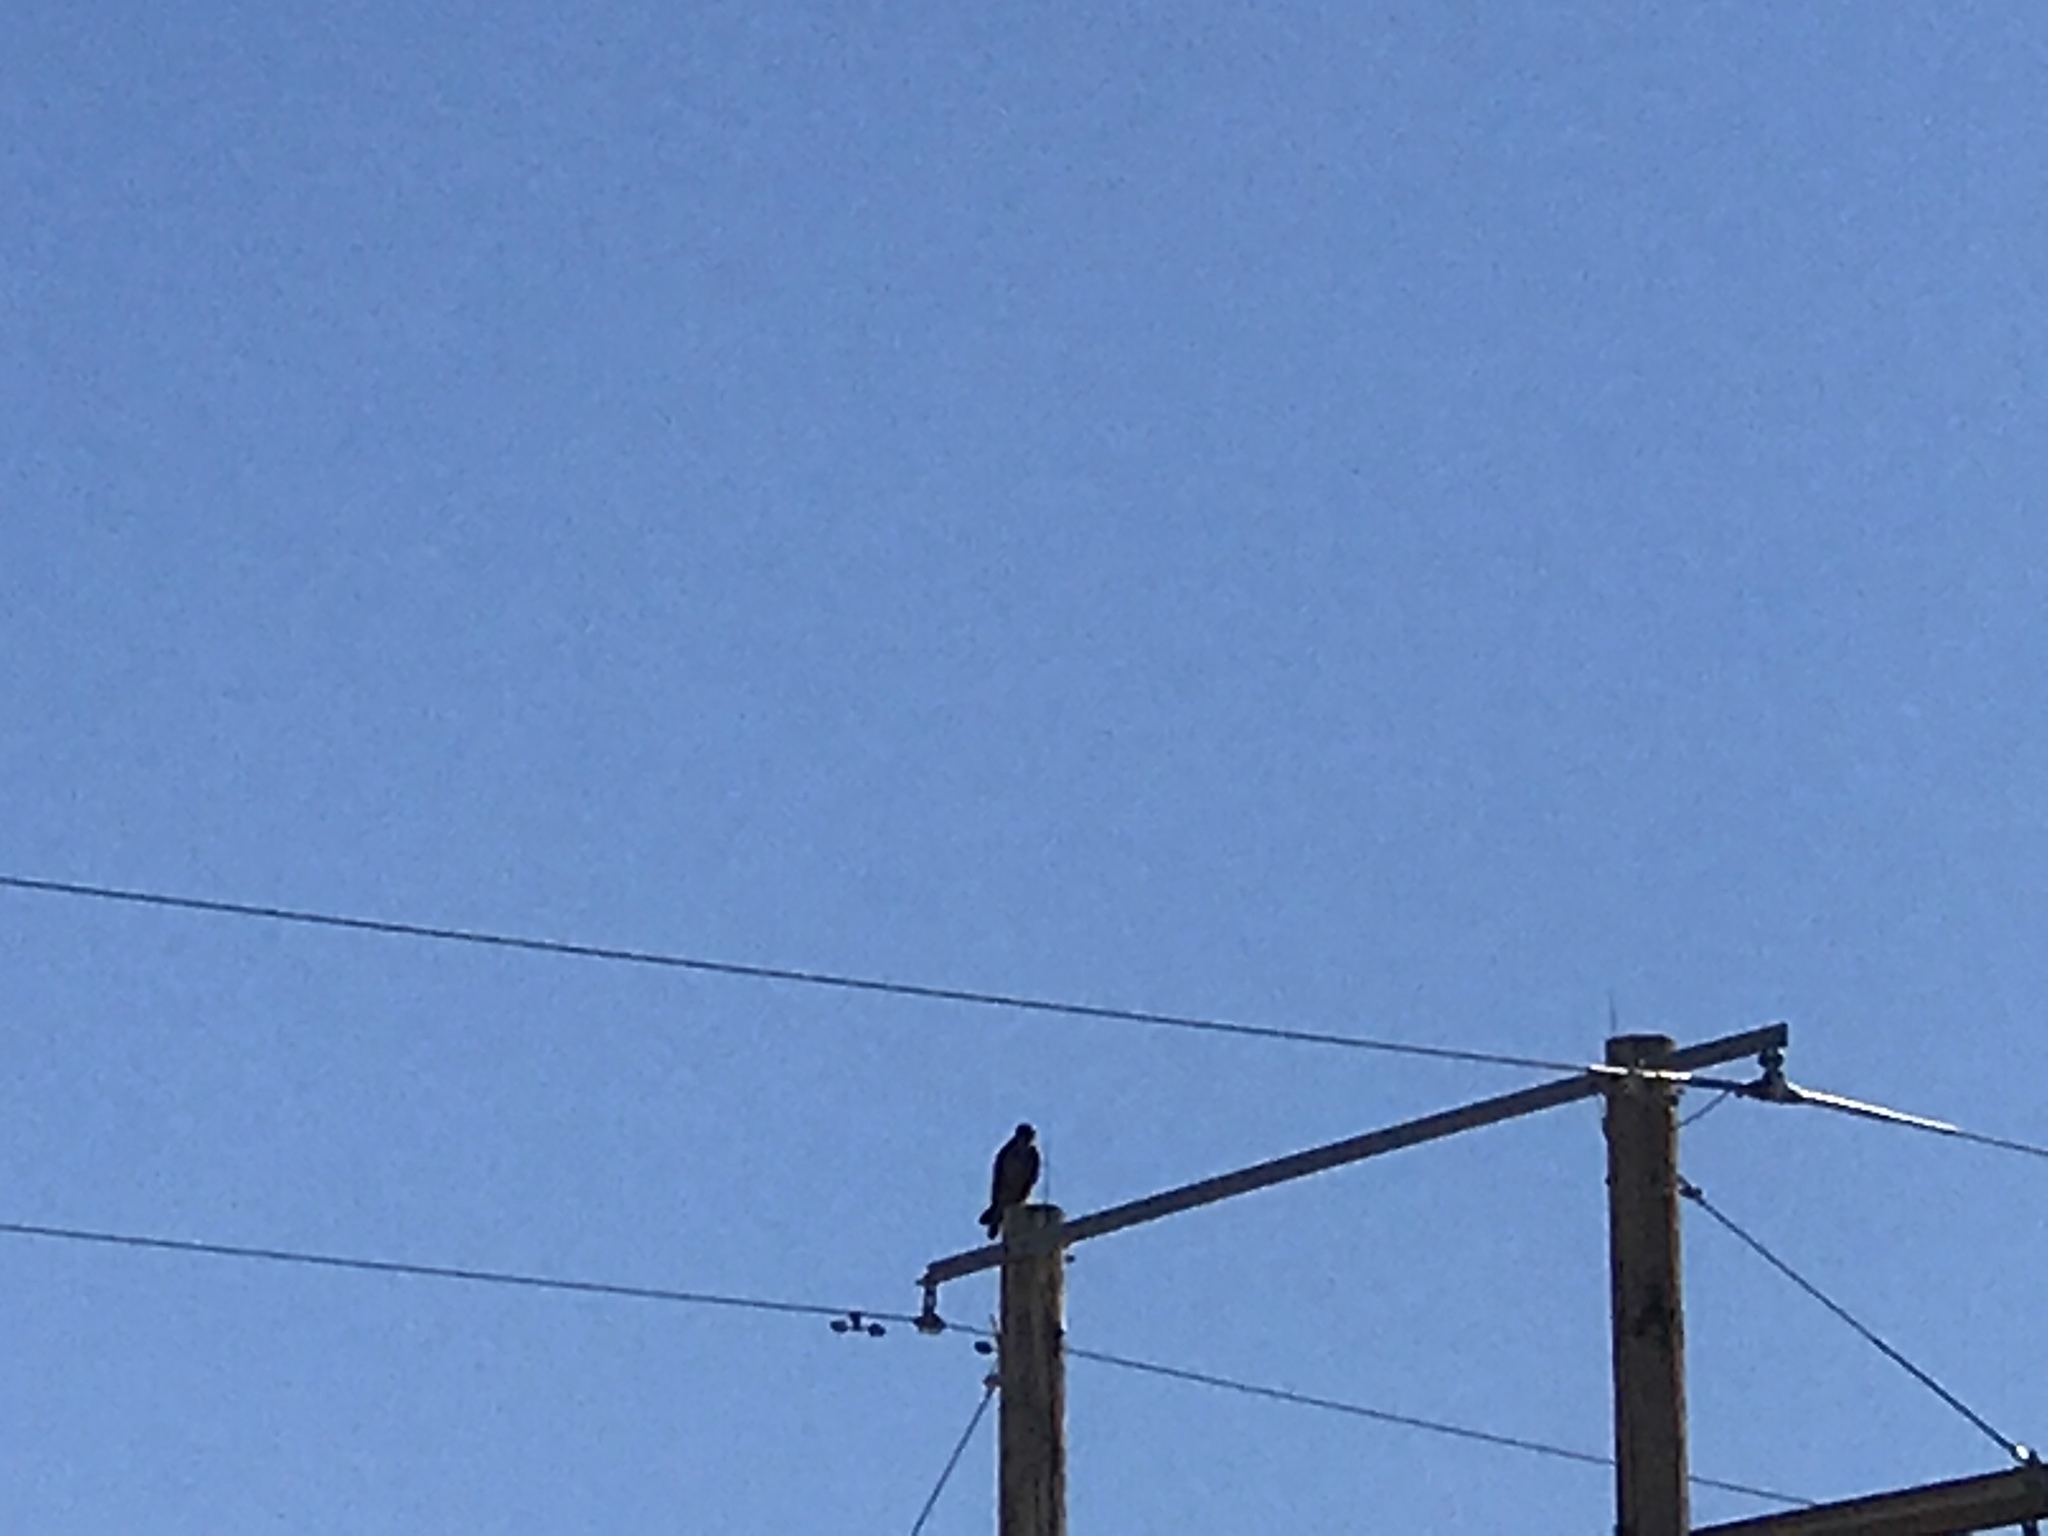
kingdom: Animalia
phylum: Chordata
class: Aves
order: Accipitriformes
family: Accipitridae
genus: Buteo
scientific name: Buteo jamaicensis
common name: Red-tailed hawk
